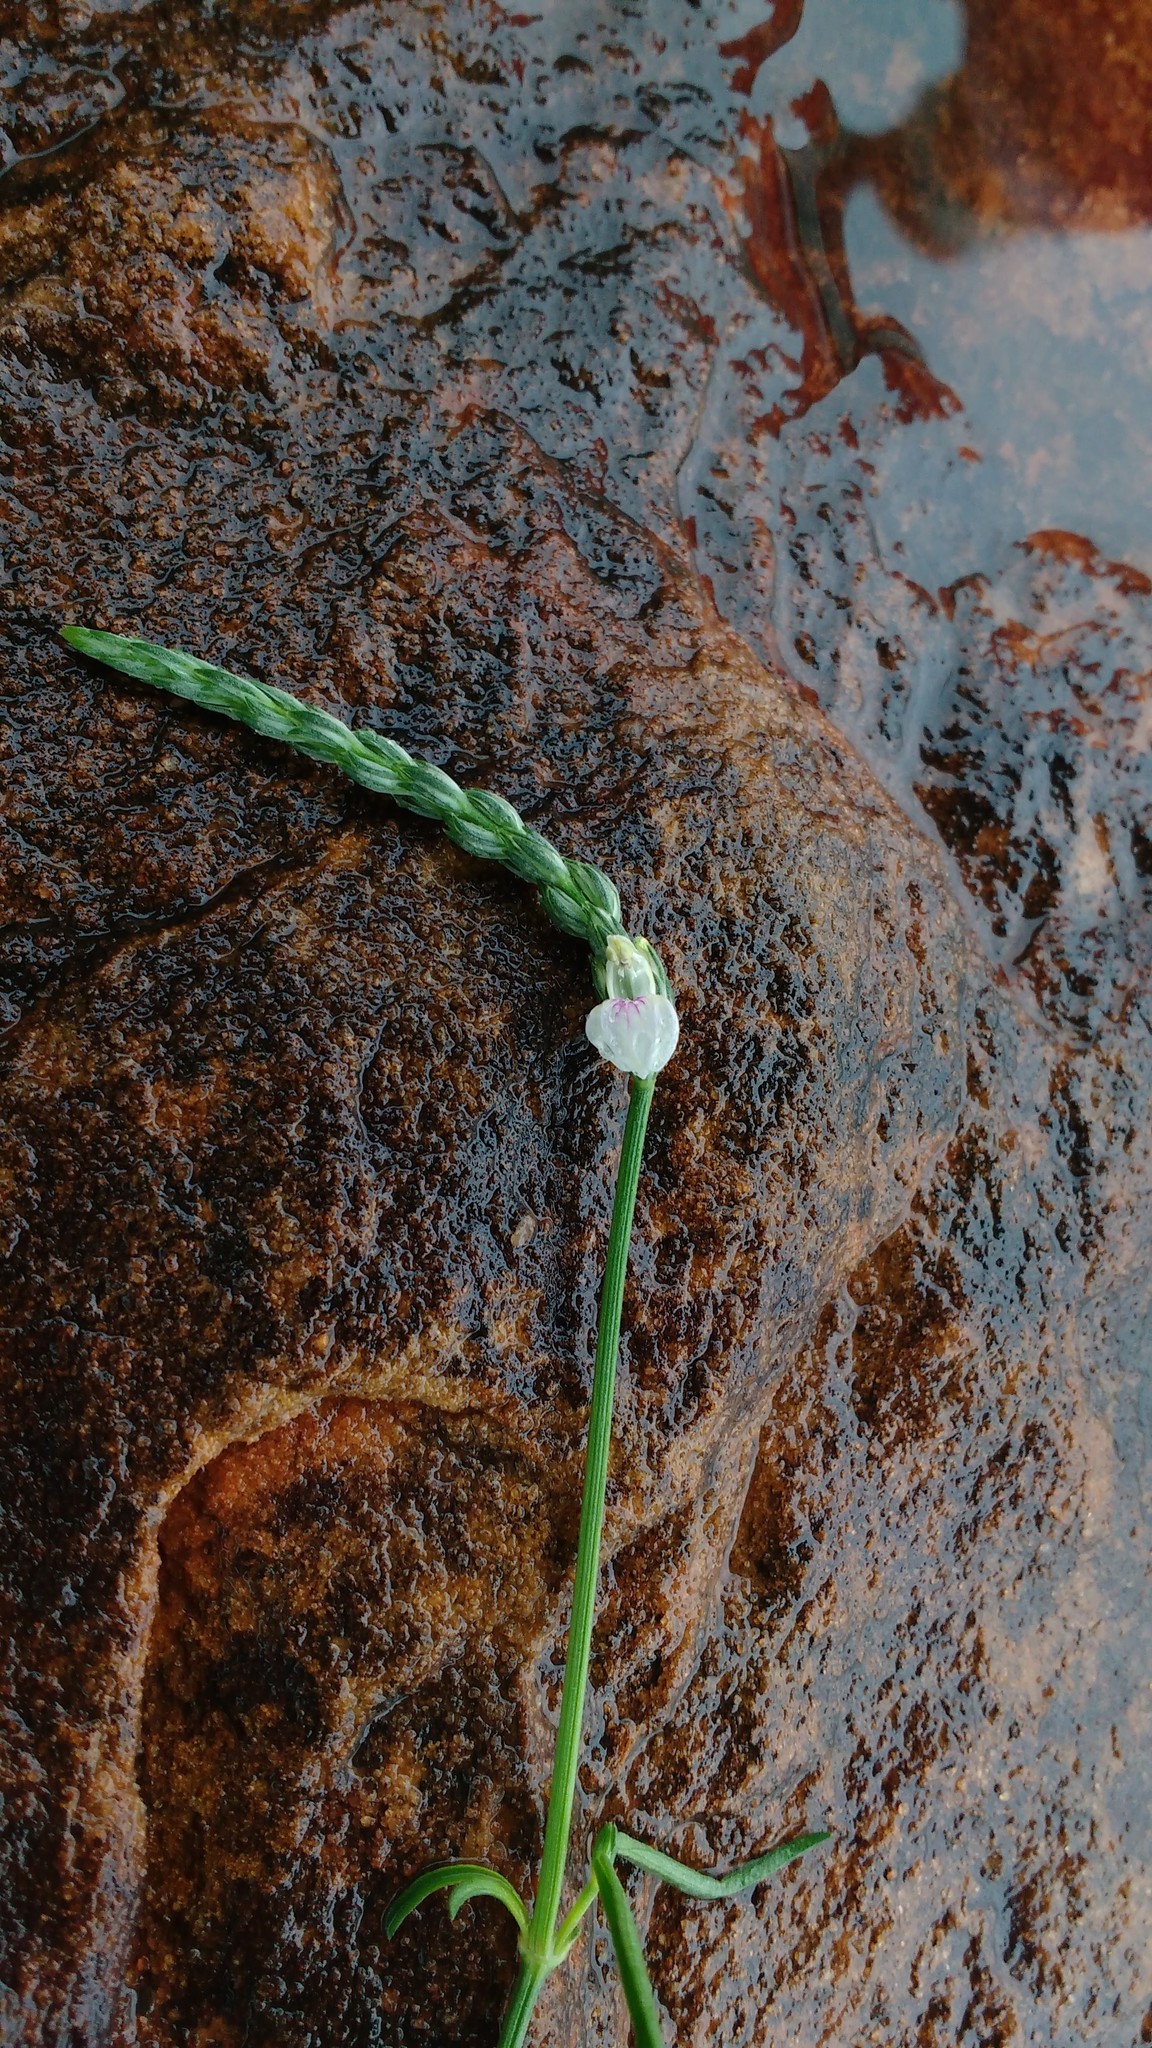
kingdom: Plantae
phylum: Tracheophyta
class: Magnoliopsida
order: Lamiales
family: Acanthaceae
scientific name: Acanthaceae
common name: Acanthaceae
